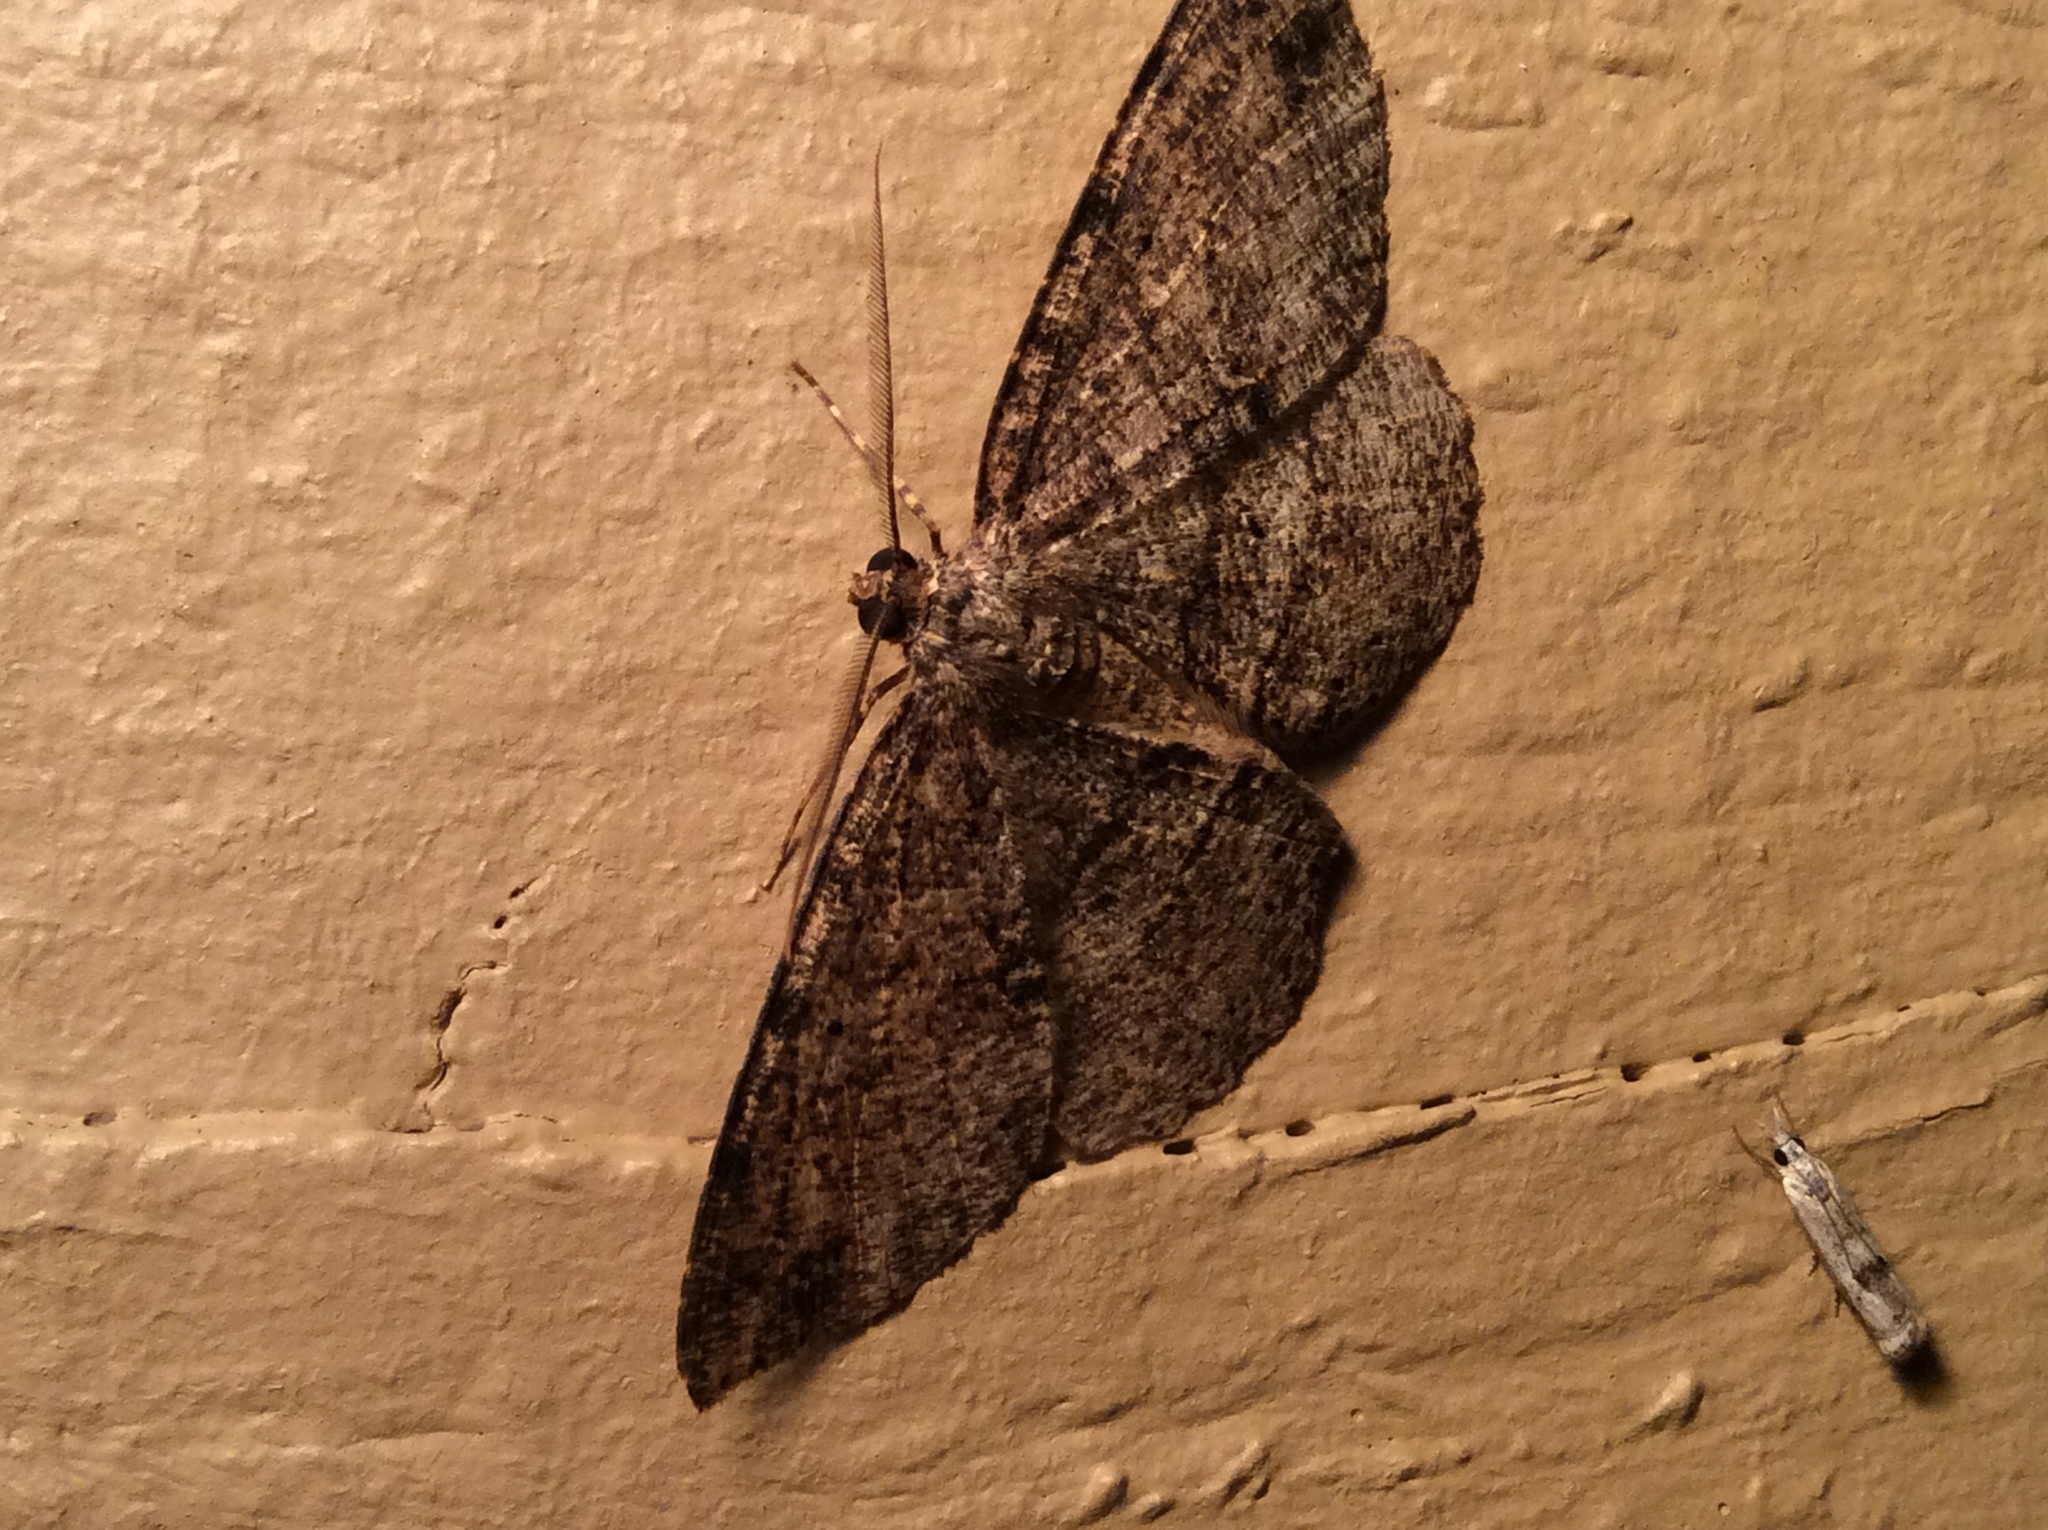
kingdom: Animalia
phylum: Arthropoda
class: Insecta
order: Lepidoptera
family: Geometridae
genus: Melanolophia
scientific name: Melanolophia canadaria
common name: Canadian melanolophia
